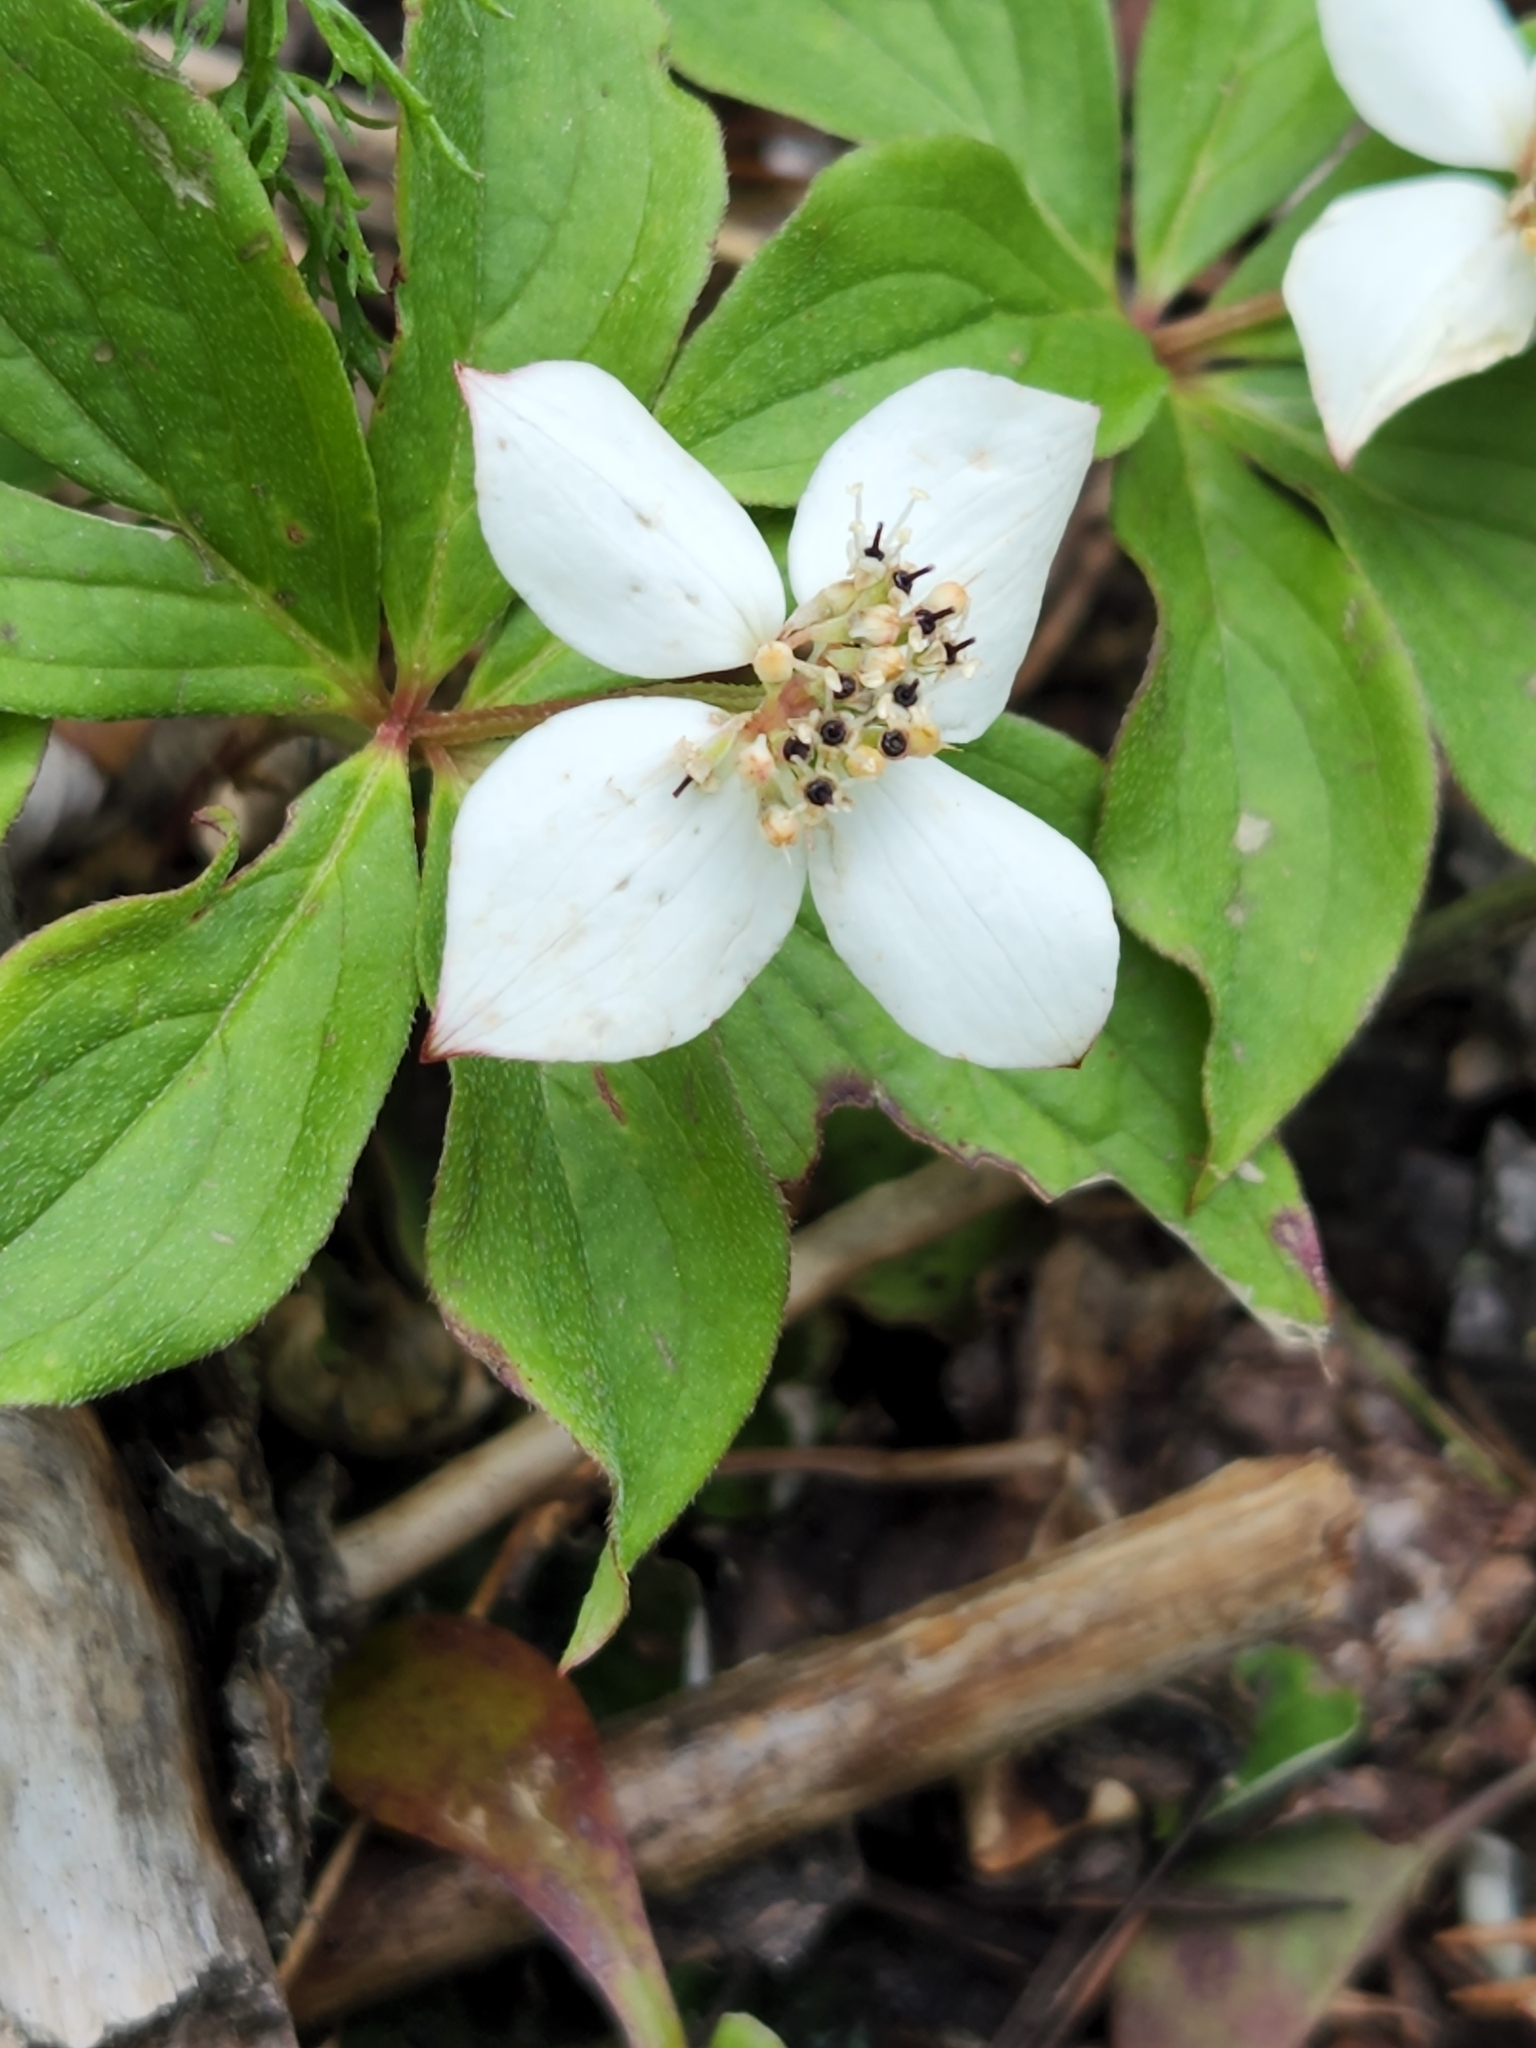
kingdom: Plantae
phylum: Tracheophyta
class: Magnoliopsida
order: Cornales
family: Cornaceae
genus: Cornus
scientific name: Cornus canadensis
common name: Creeping dogwood
